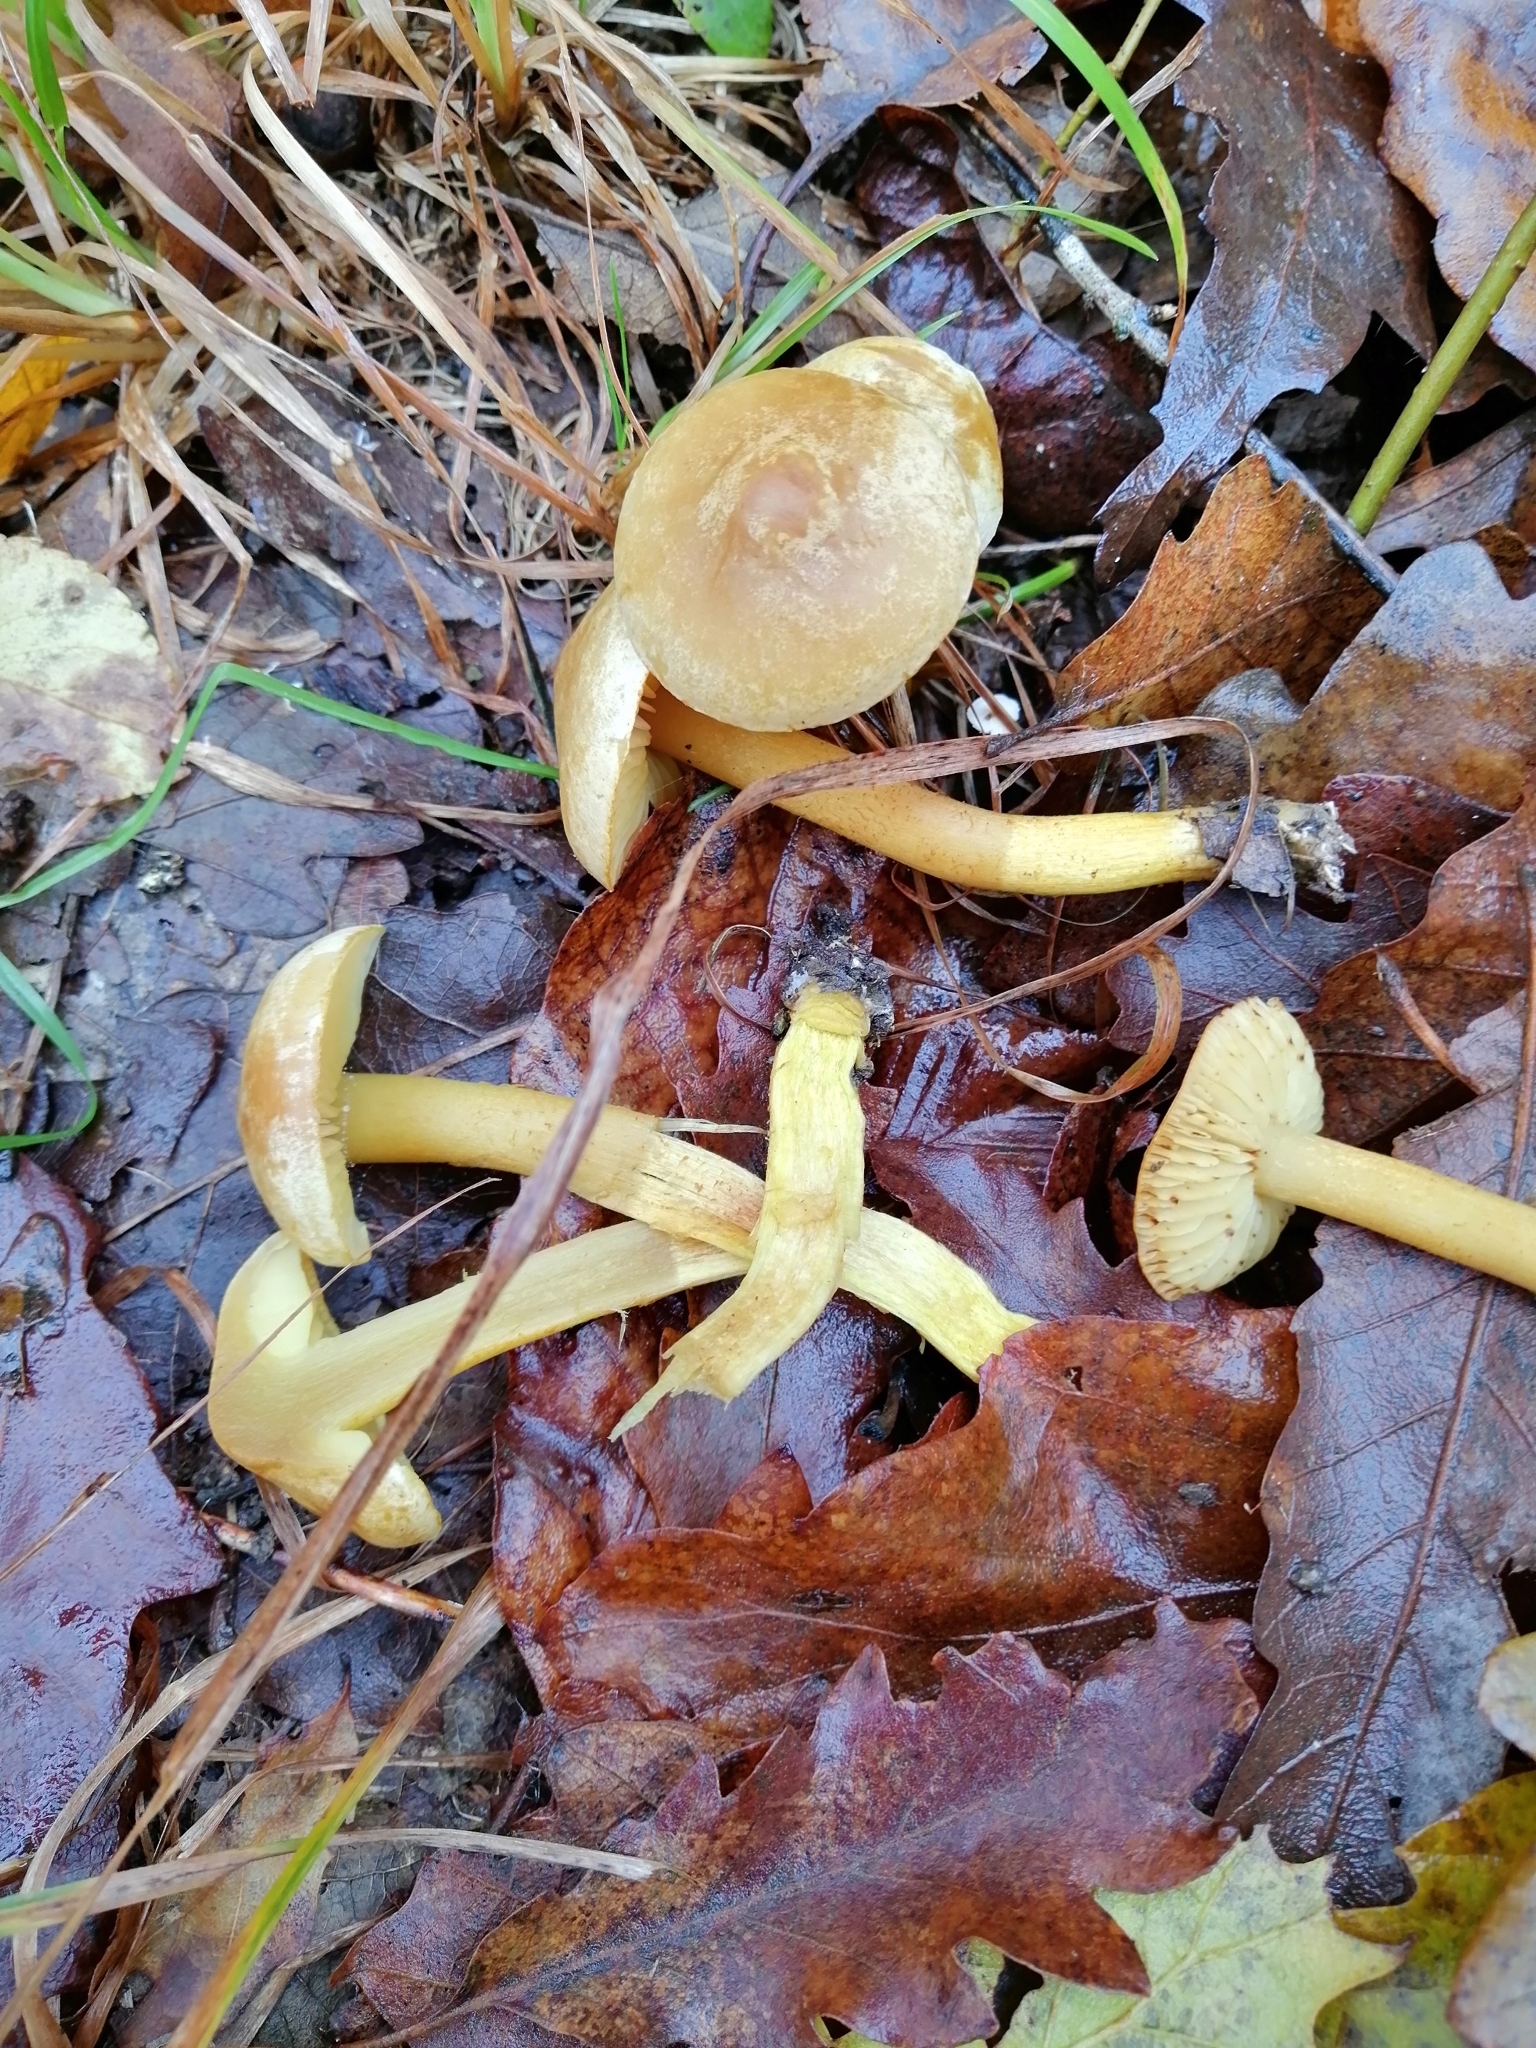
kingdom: Fungi
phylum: Basidiomycota
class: Agaricomycetes
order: Agaricales
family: Tricholomataceae
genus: Tricholoma
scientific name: Tricholoma sulphureum
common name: Stinky knight
